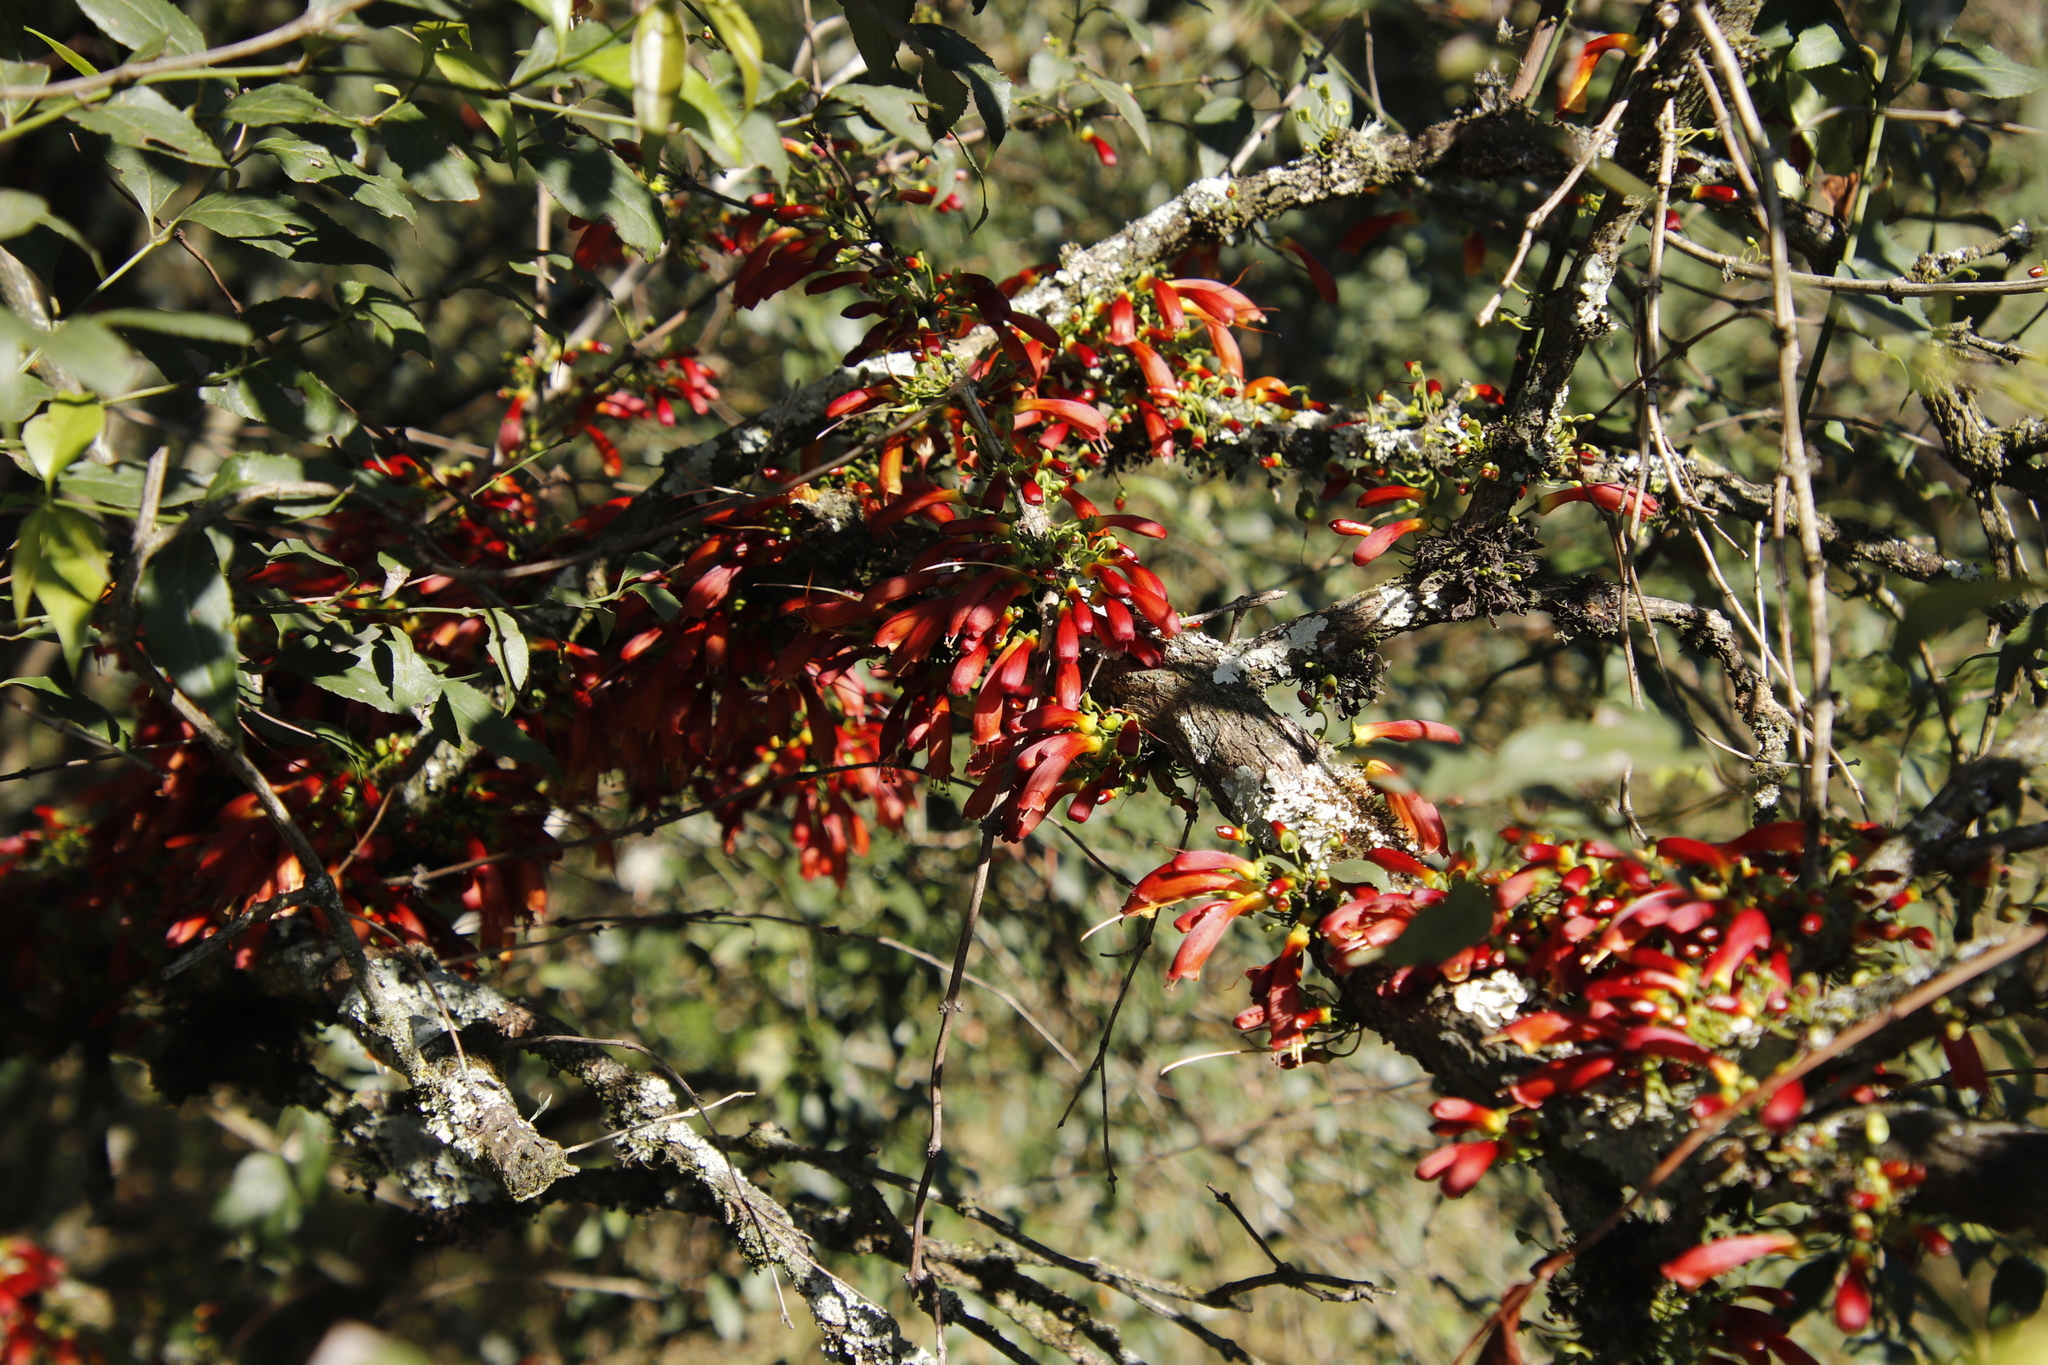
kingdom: Plantae
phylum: Tracheophyta
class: Magnoliopsida
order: Lamiales
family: Stilbaceae
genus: Halleria
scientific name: Halleria lucida
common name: Tree fuschia
